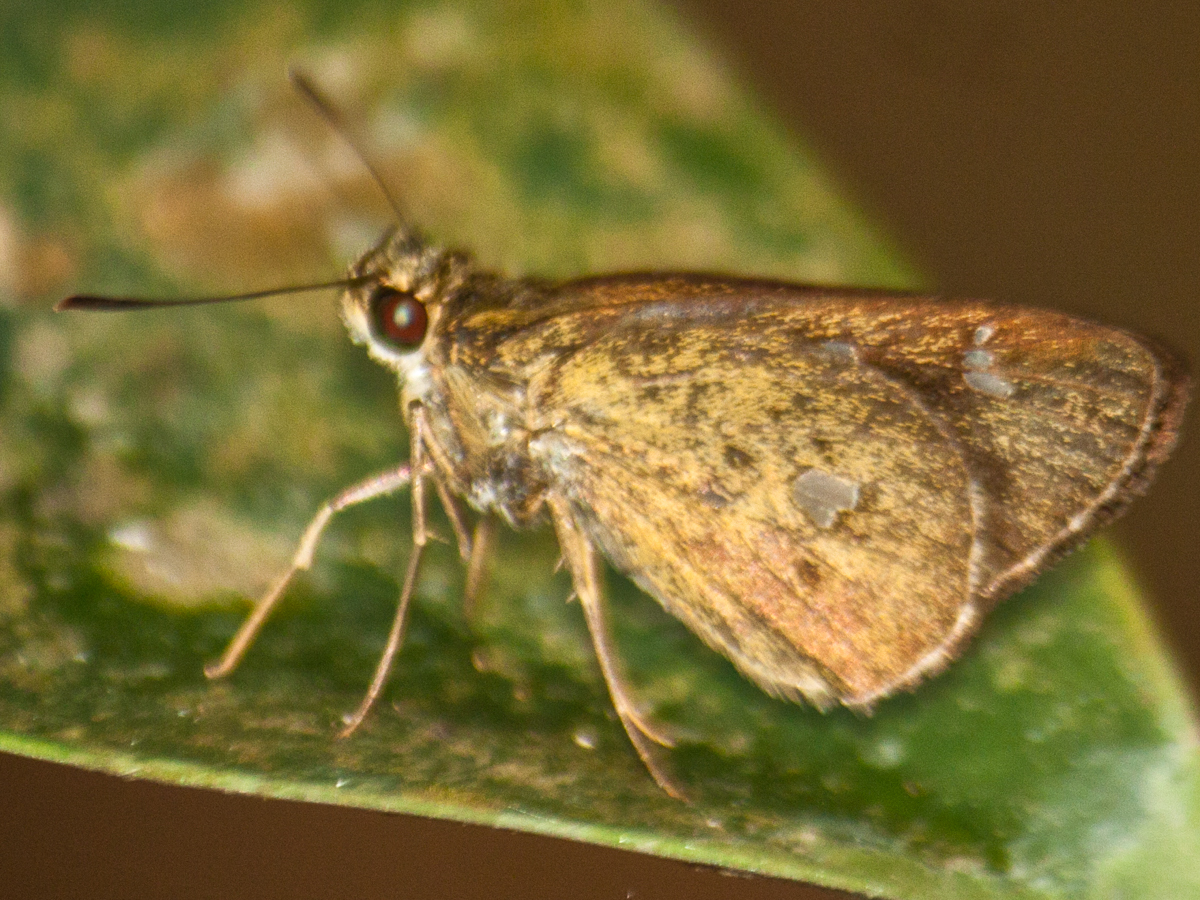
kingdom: Animalia
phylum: Arthropoda
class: Insecta
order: Lepidoptera
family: Hesperiidae
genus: Scobura
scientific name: Scobura phiditia
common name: Malay forest bob
